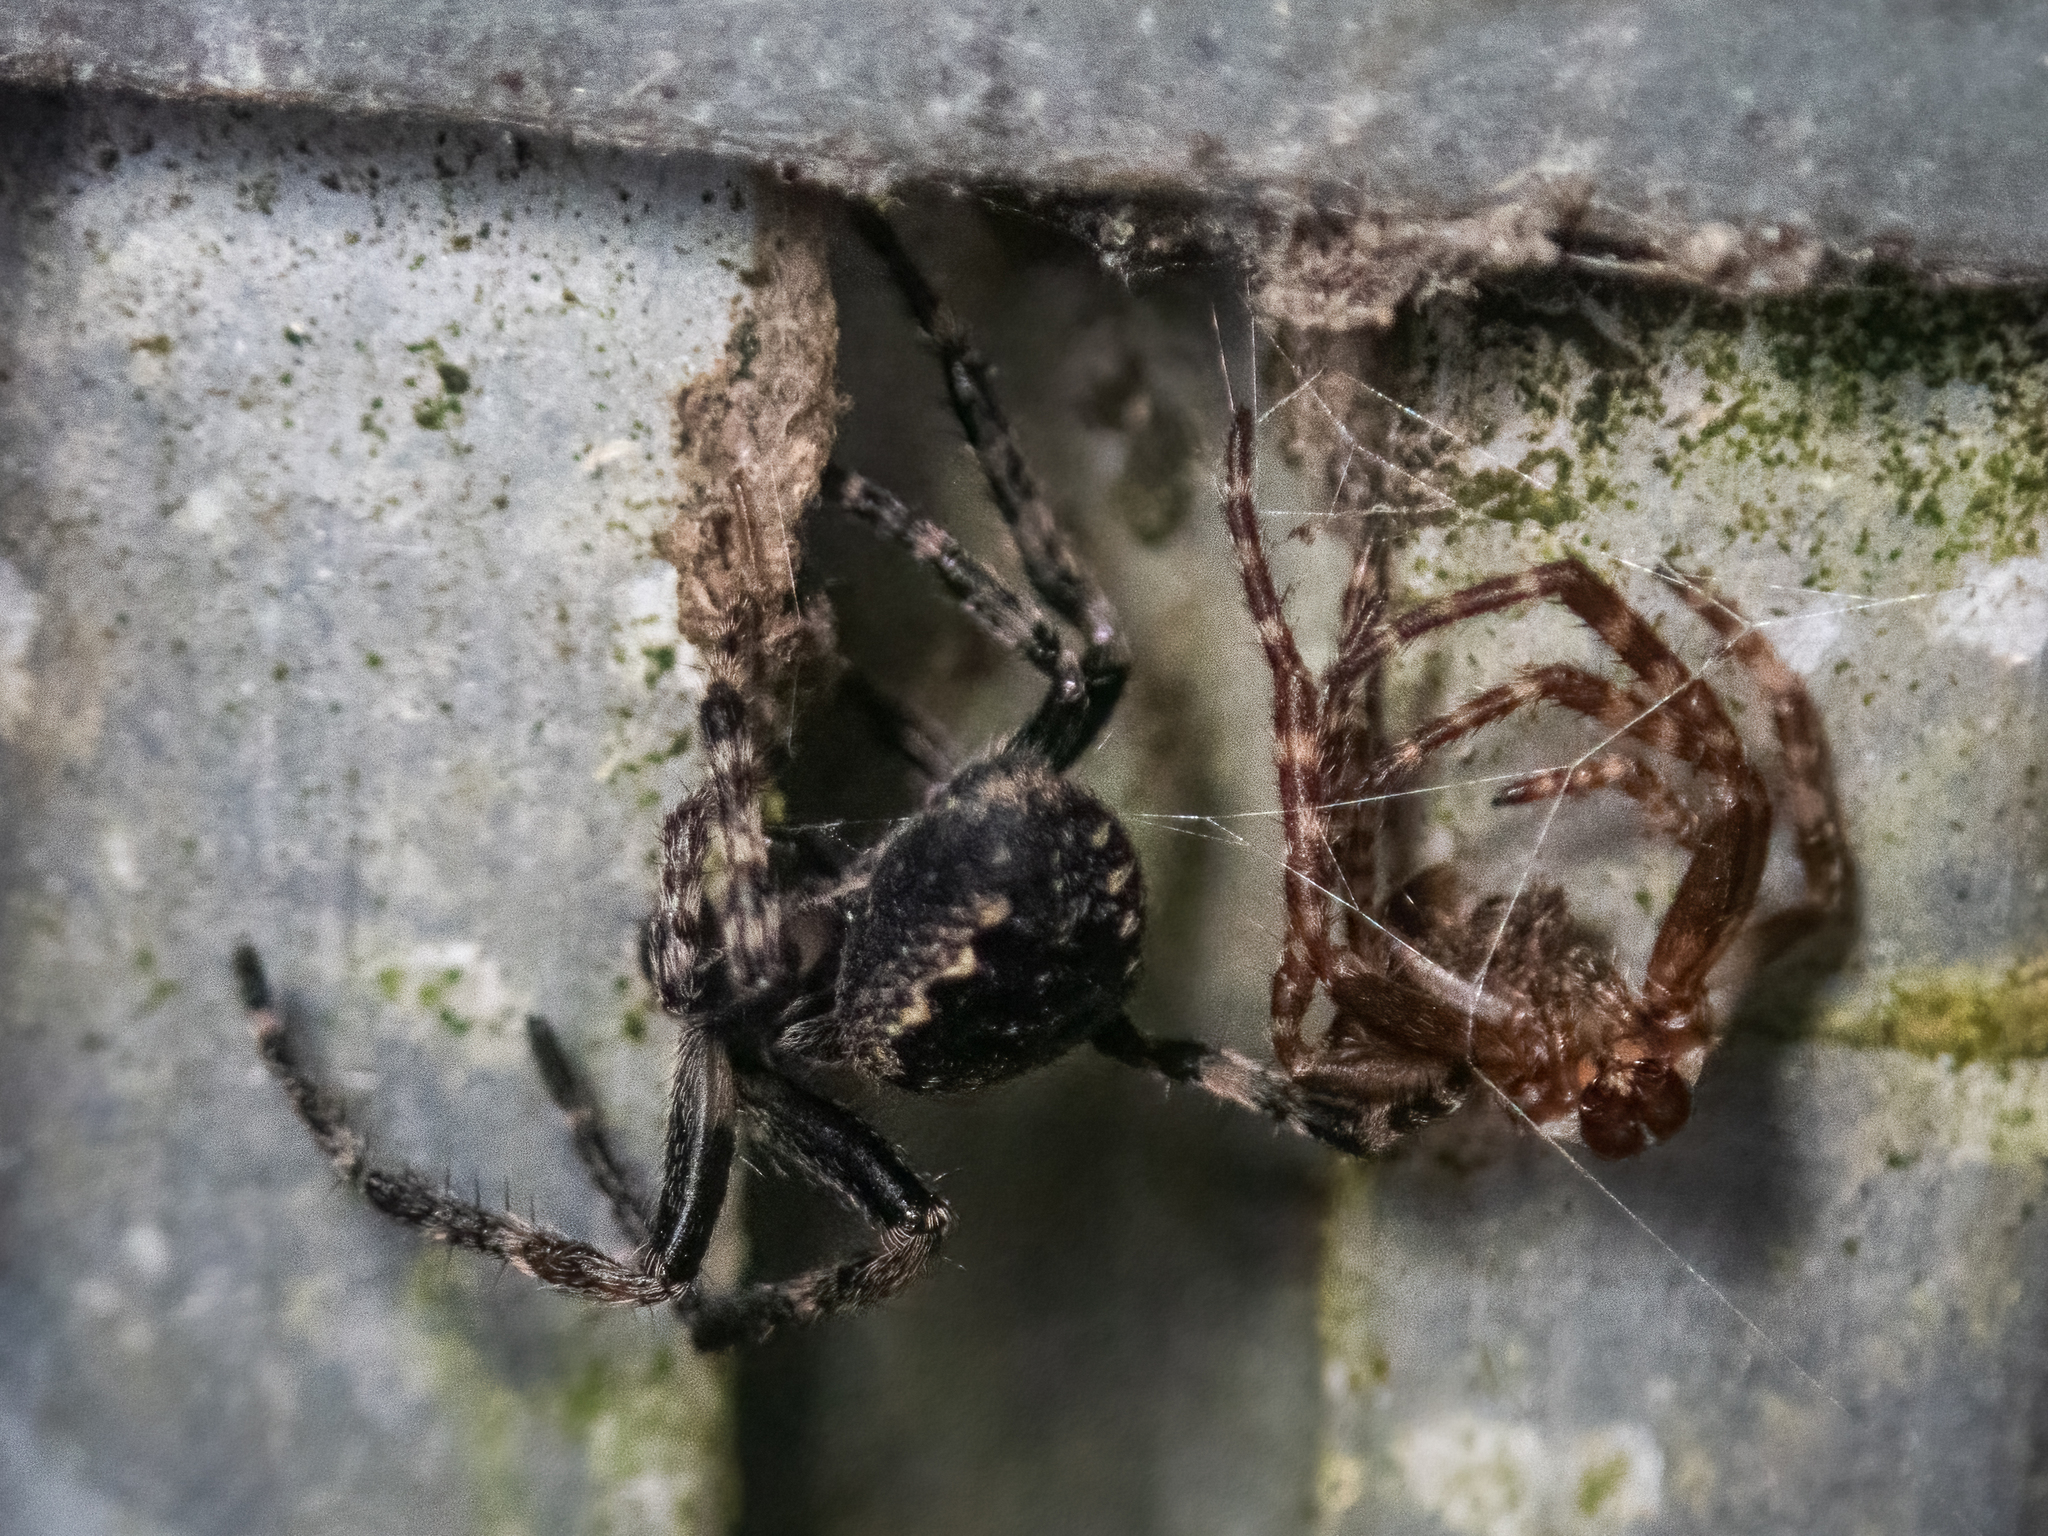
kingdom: Animalia
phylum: Arthropoda
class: Arachnida
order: Araneae
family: Araneidae
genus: Nuctenea
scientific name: Nuctenea umbratica
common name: Toad spider
